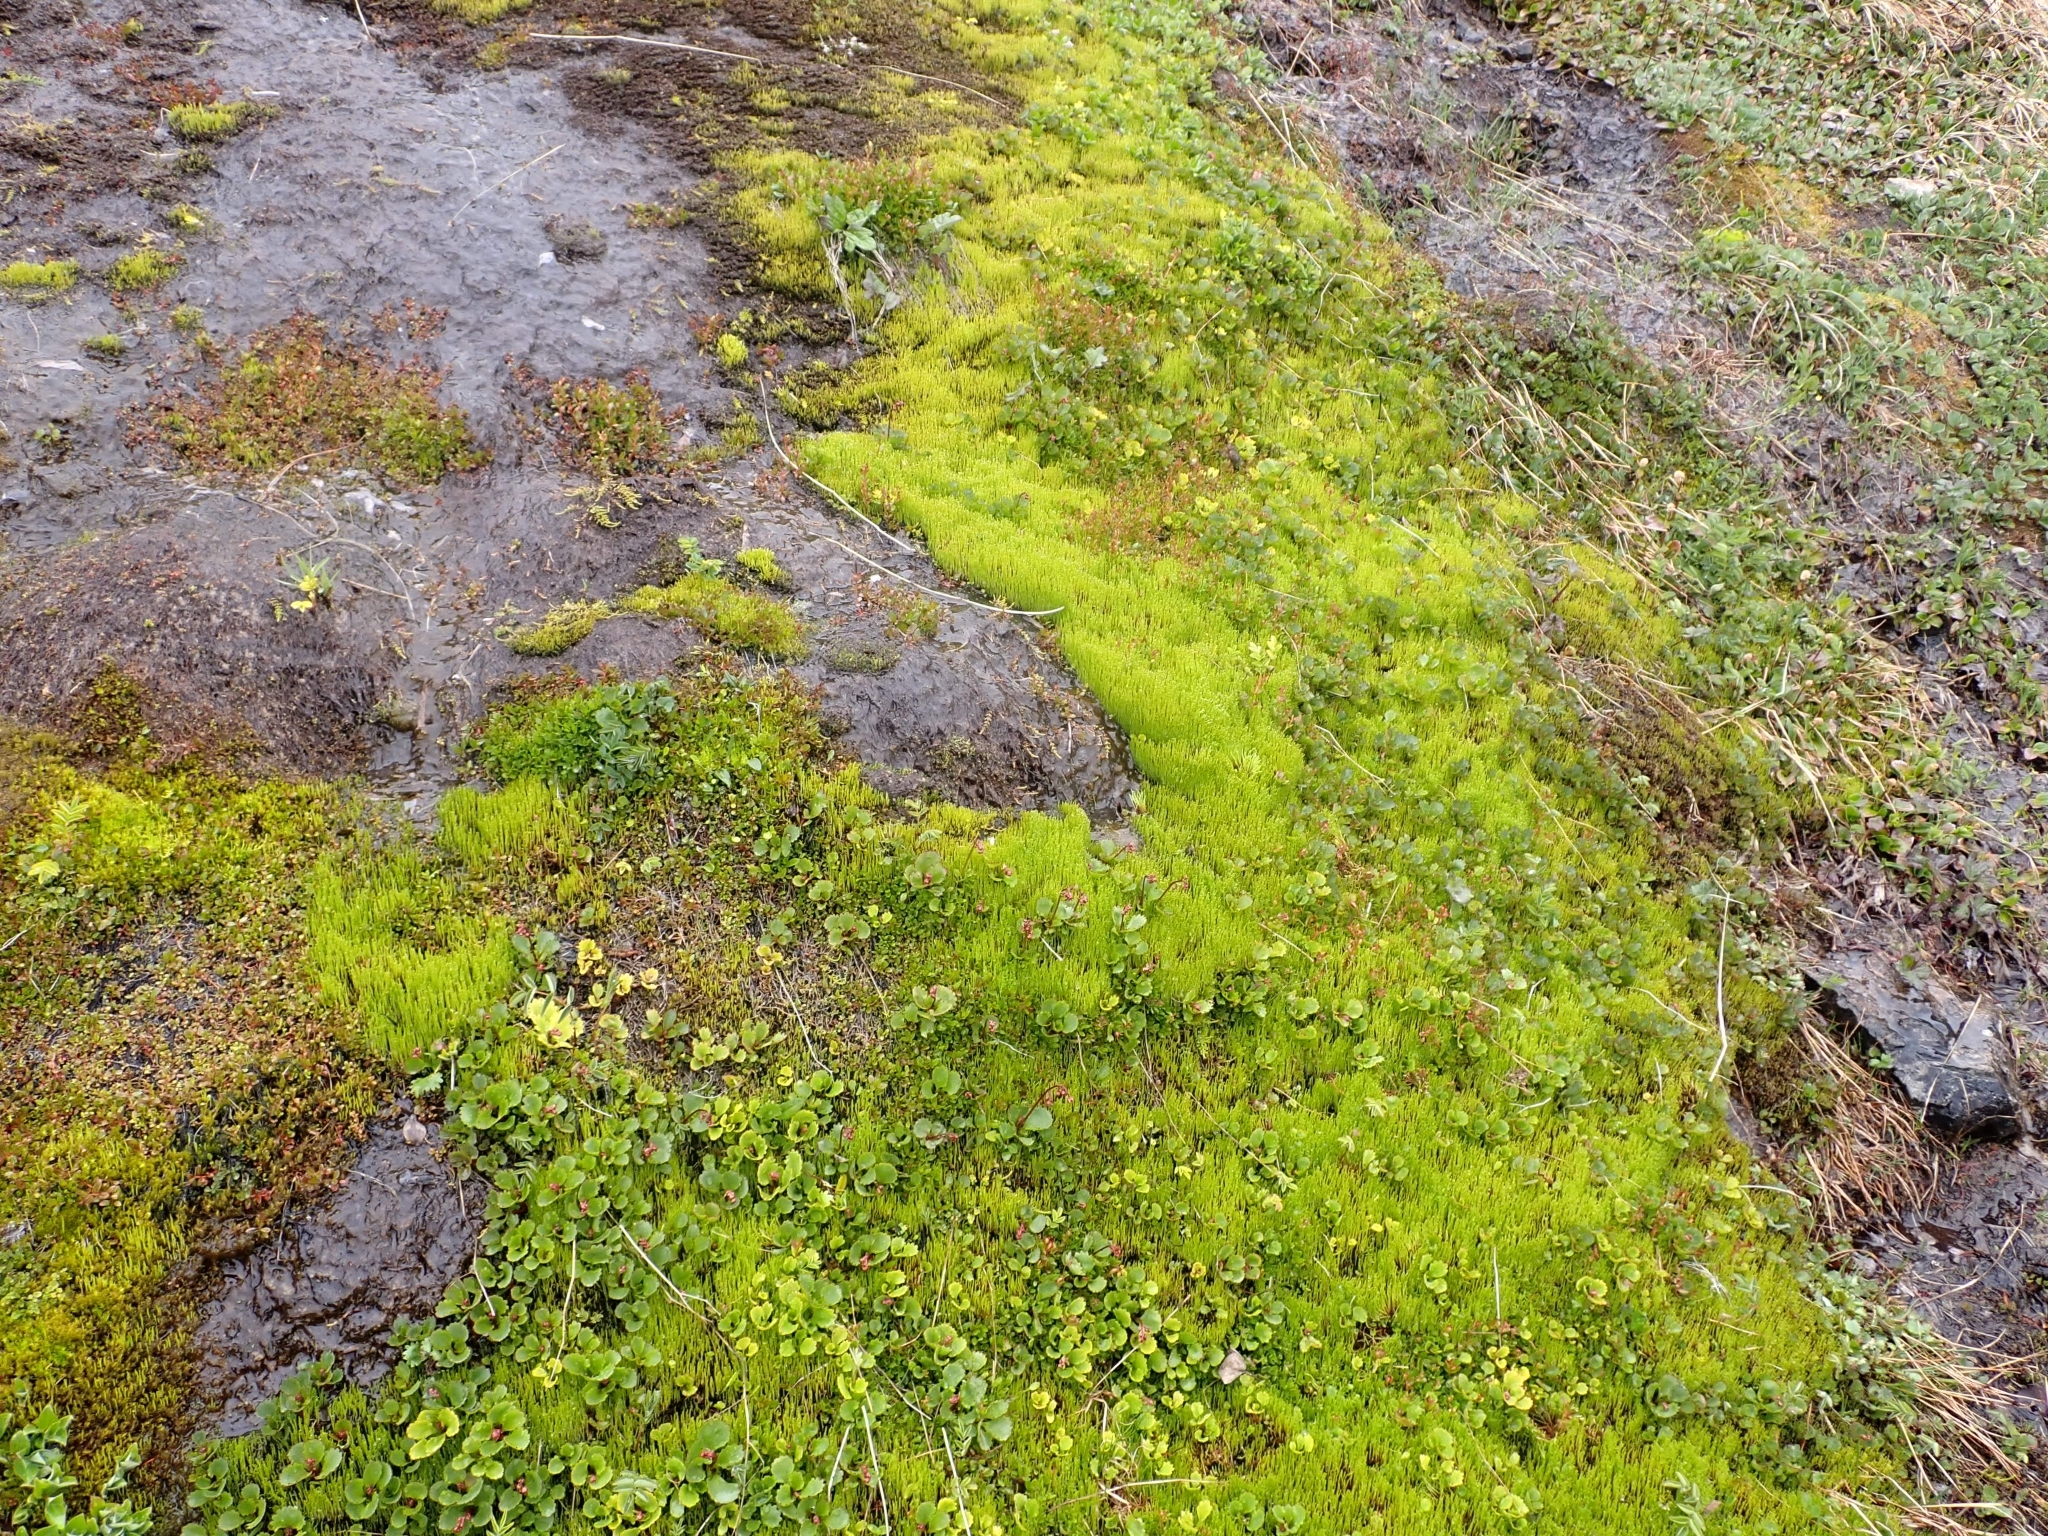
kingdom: Plantae
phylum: Bryophyta
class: Bryopsida
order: Bartramiales
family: Bartramiaceae
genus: Philonotis
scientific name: Philonotis fontana
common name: Fountain apple-moss
